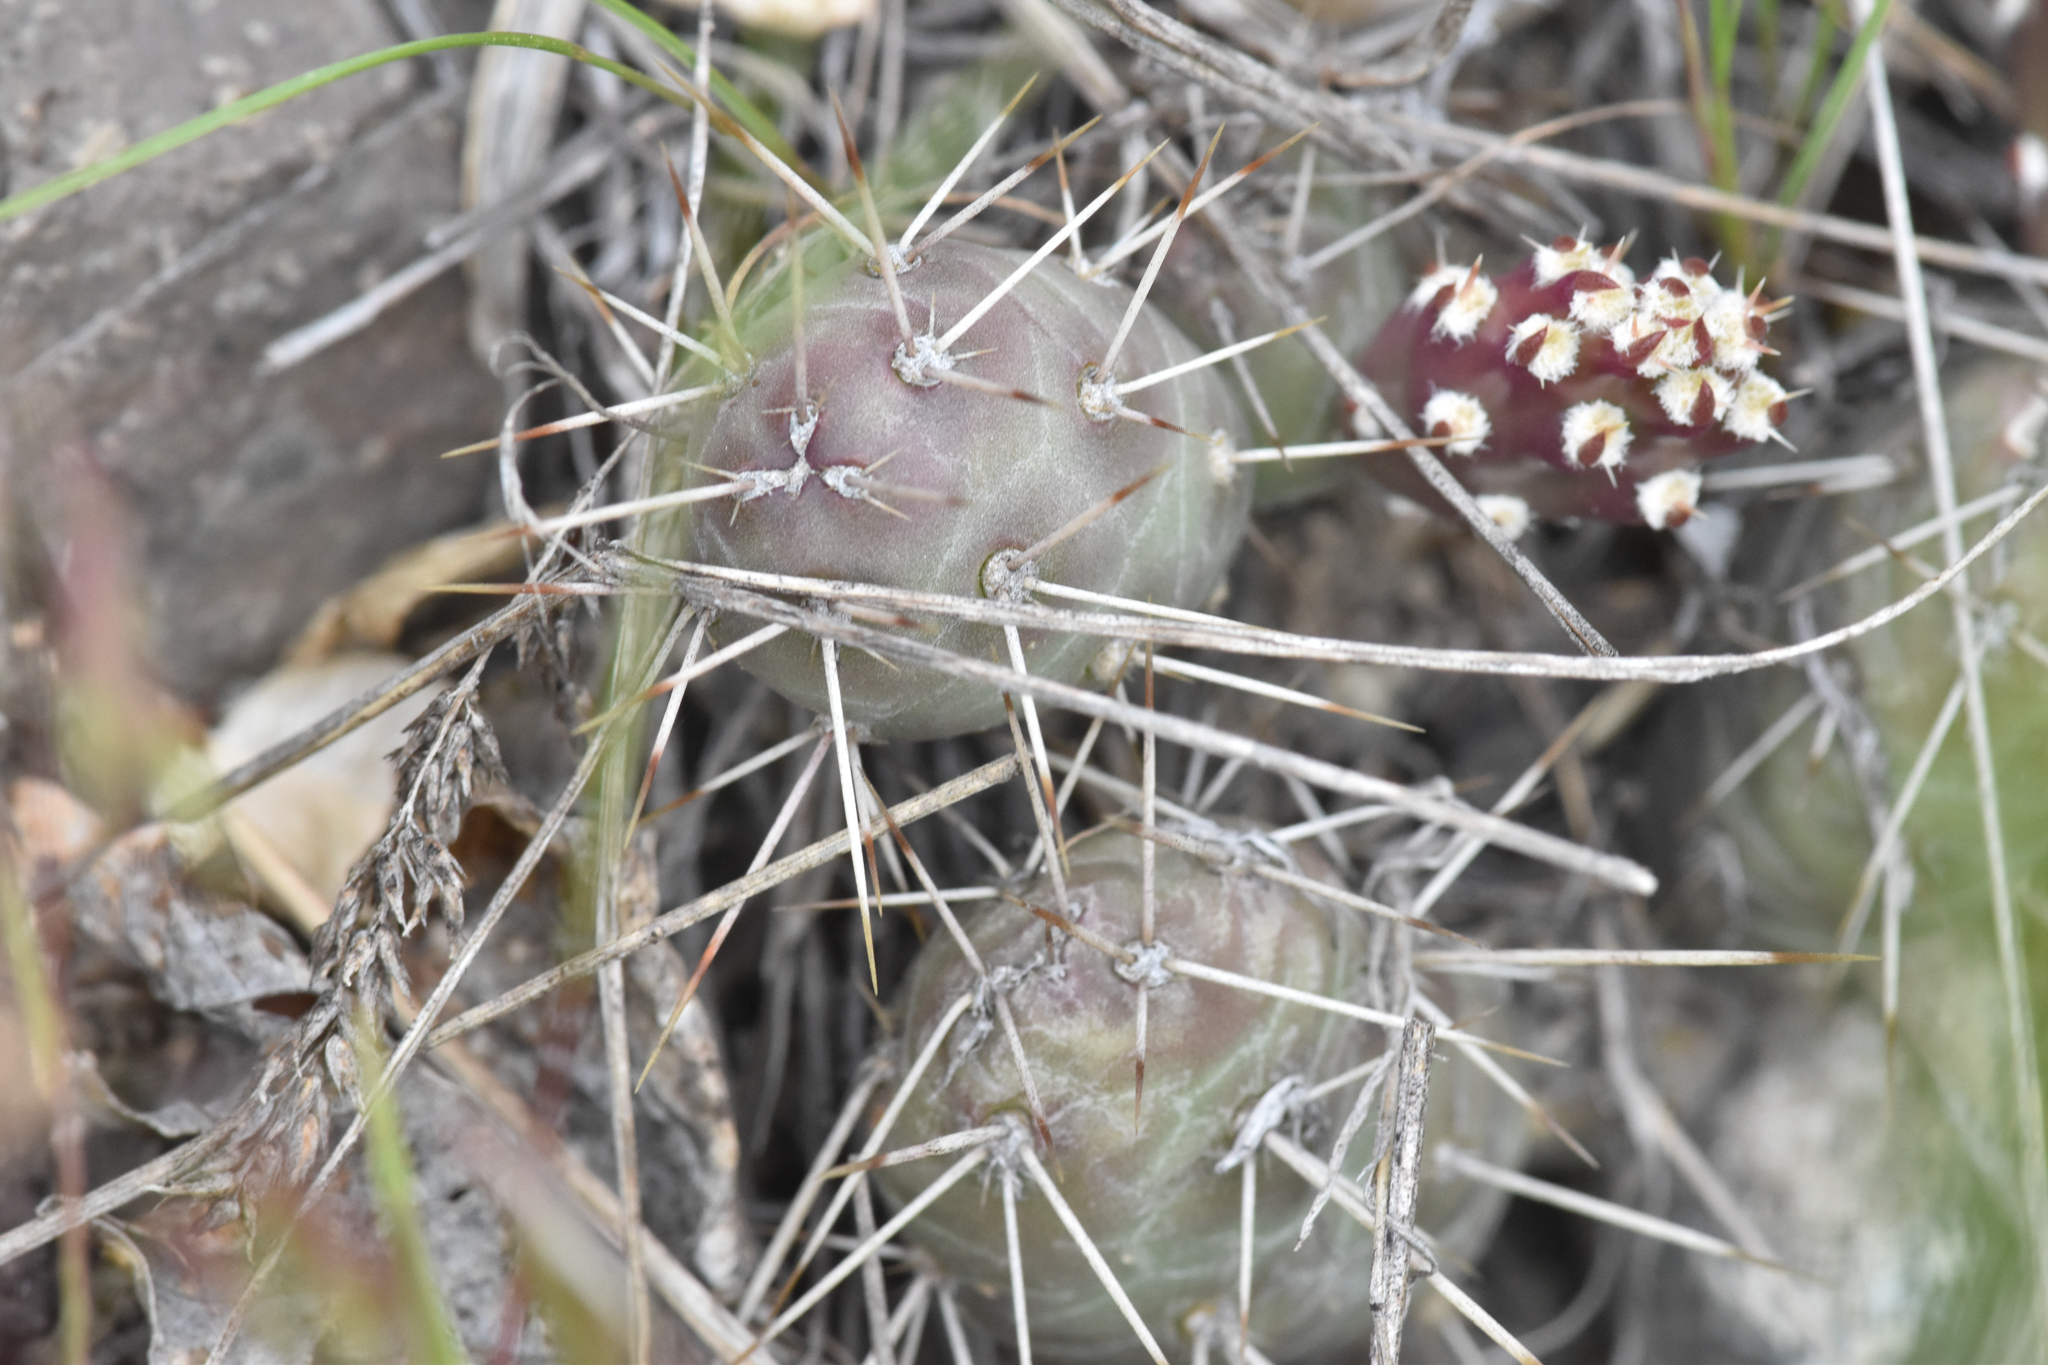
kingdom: Plantae
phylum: Tracheophyta
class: Magnoliopsida
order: Caryophyllales
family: Cactaceae
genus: Opuntia
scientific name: Opuntia fragilis
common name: Brittle cactus
